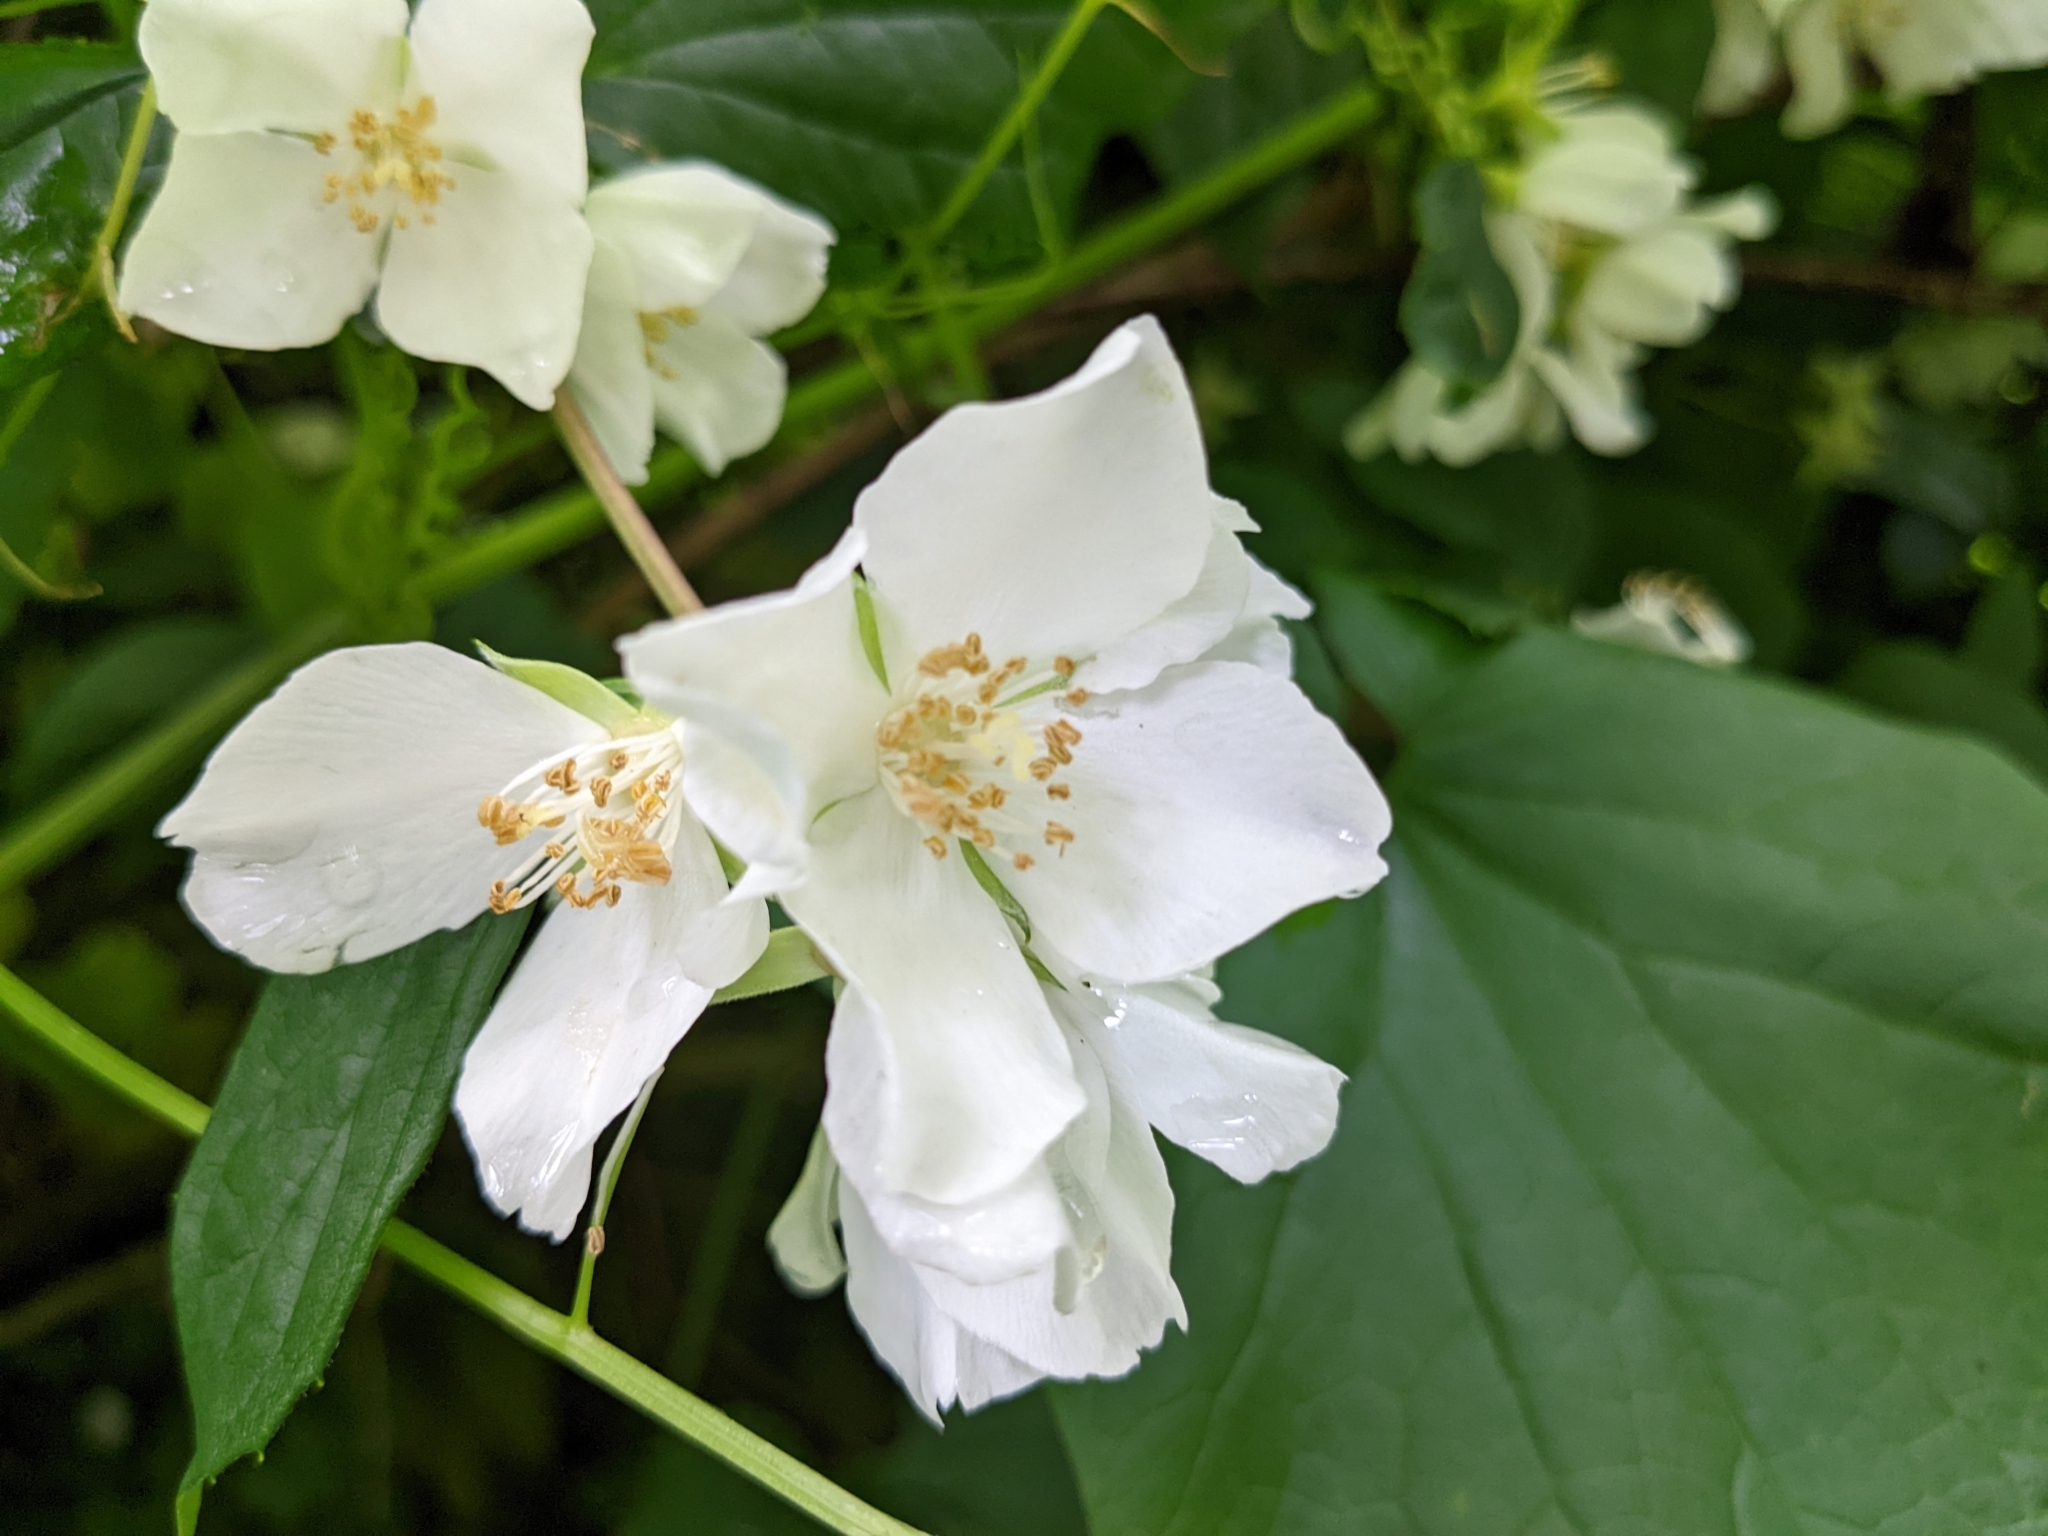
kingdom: Plantae
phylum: Tracheophyta
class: Magnoliopsida
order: Cucurbitales
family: Cucurbitaceae
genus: Marah
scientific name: Marah oregana
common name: Coastal manroot
